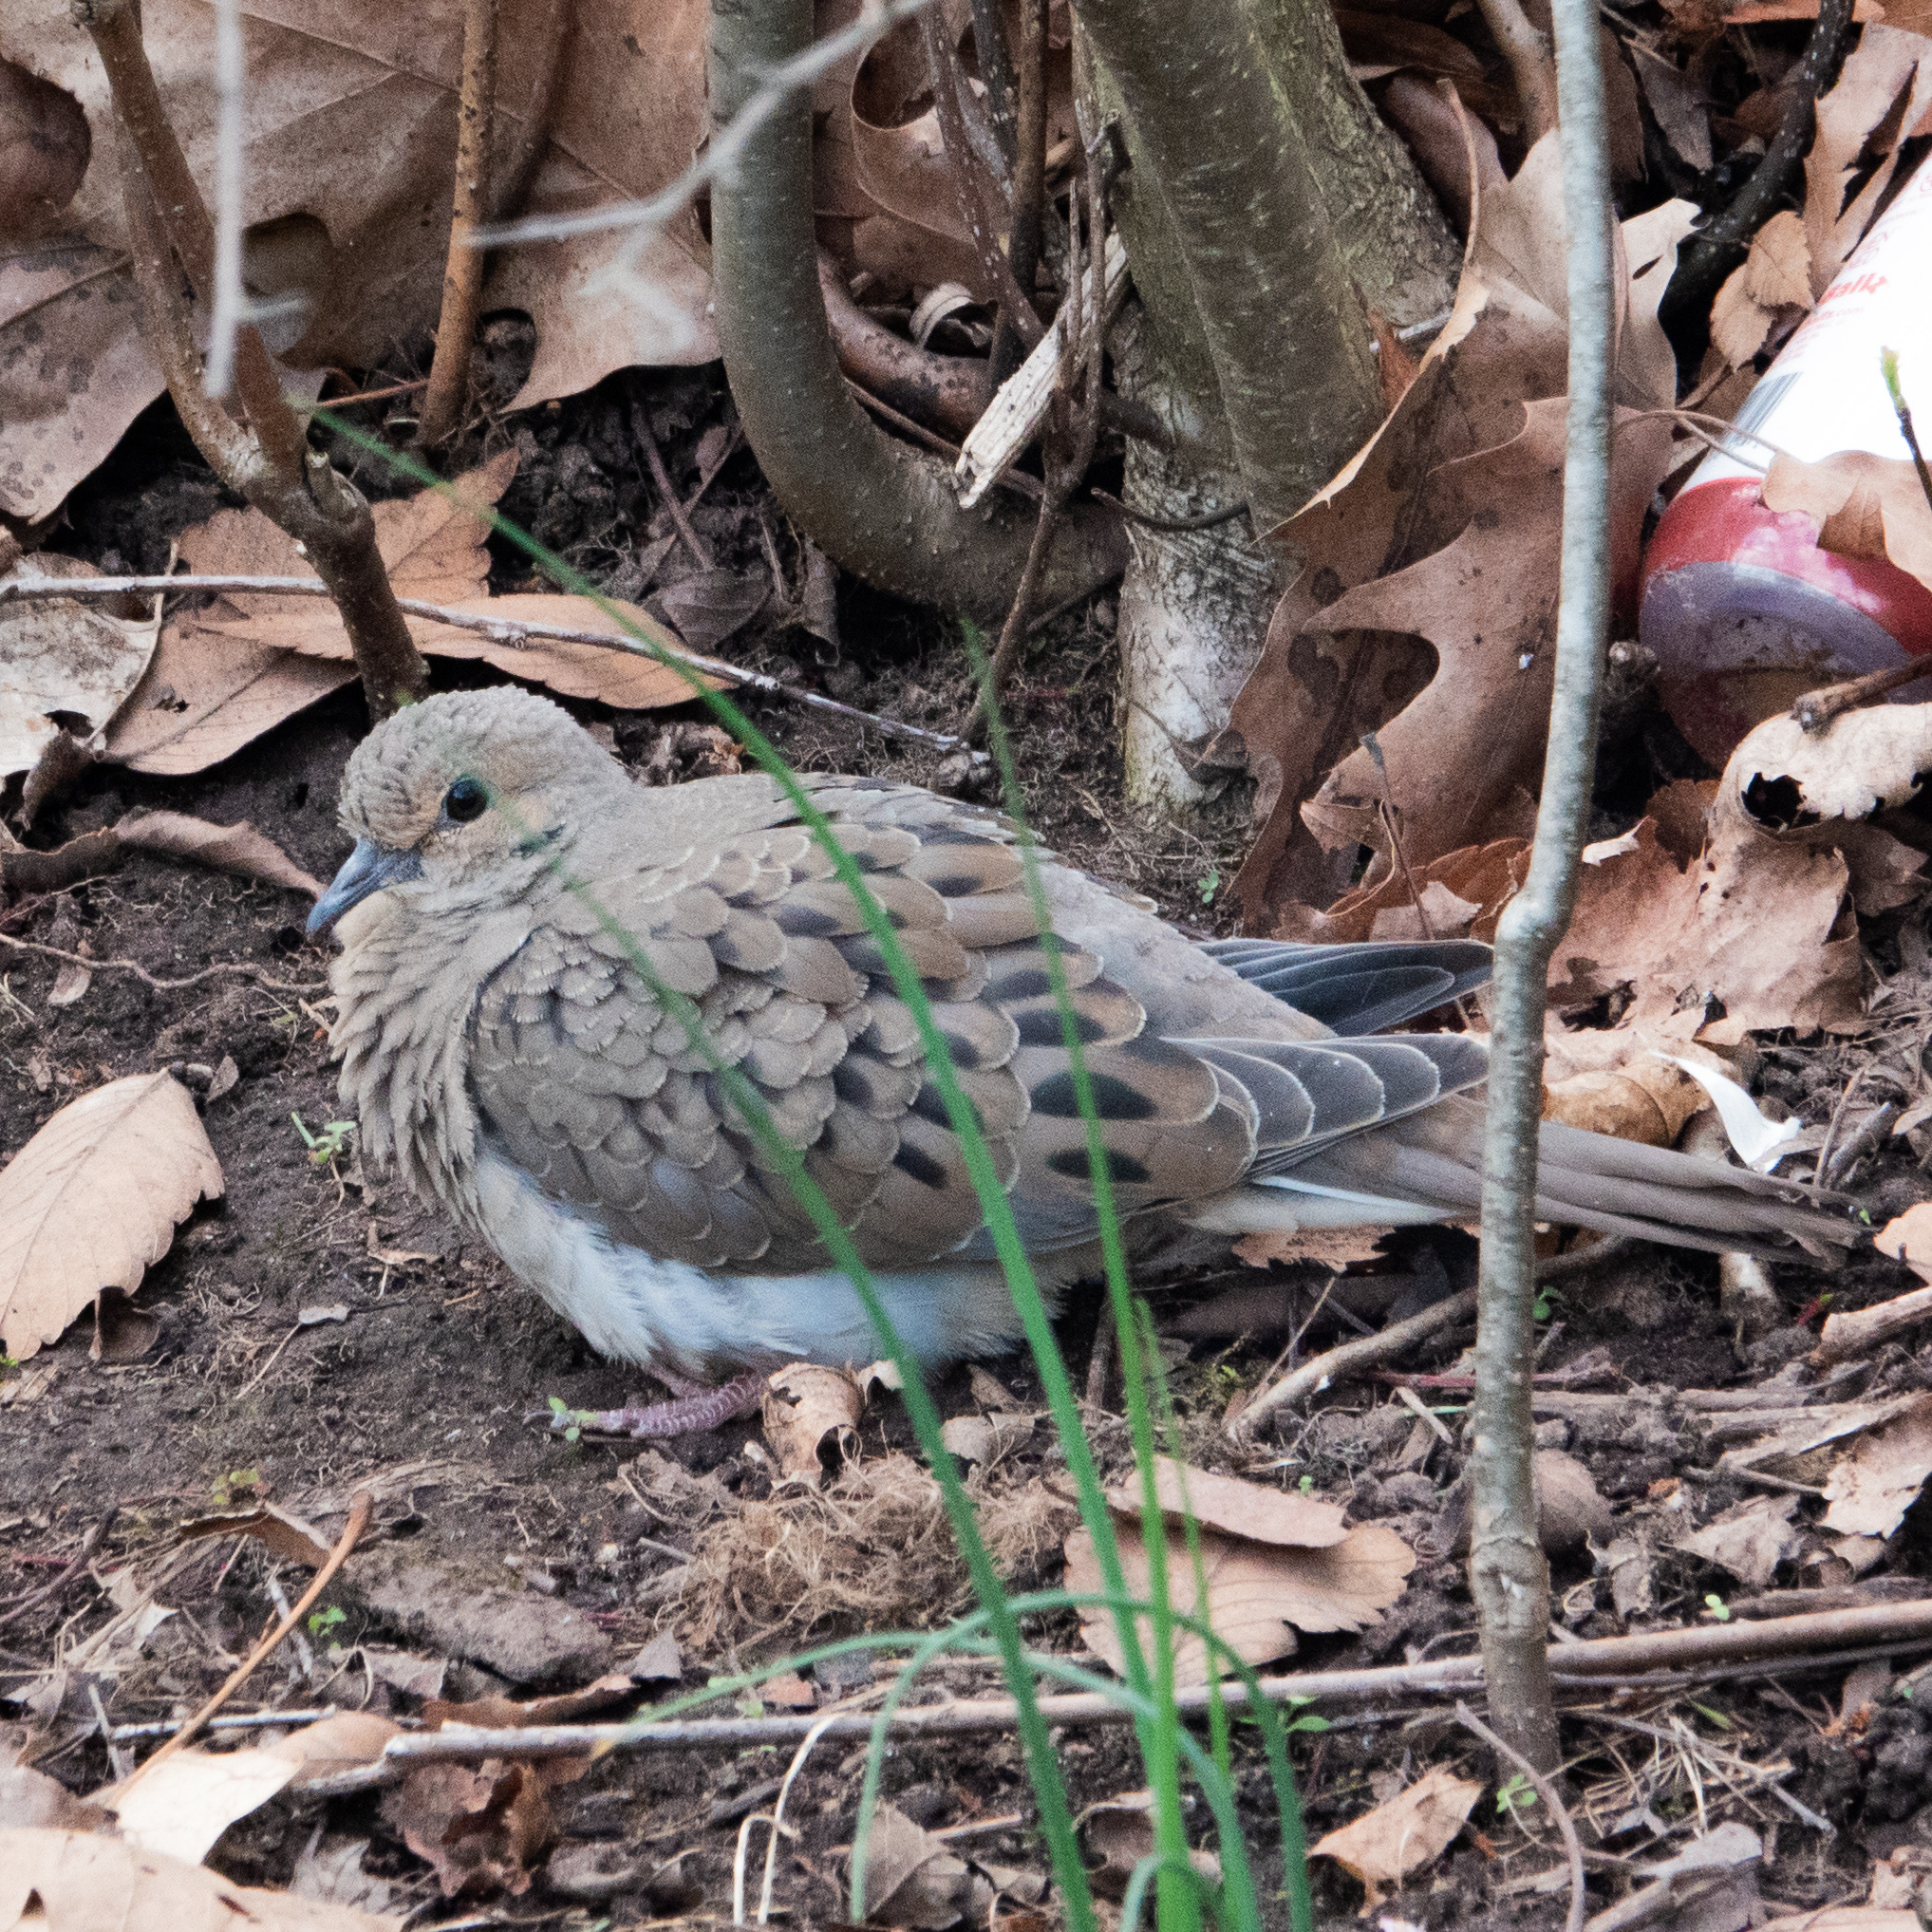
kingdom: Animalia
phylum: Chordata
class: Aves
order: Columbiformes
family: Columbidae
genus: Zenaida
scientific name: Zenaida macroura
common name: Mourning dove
